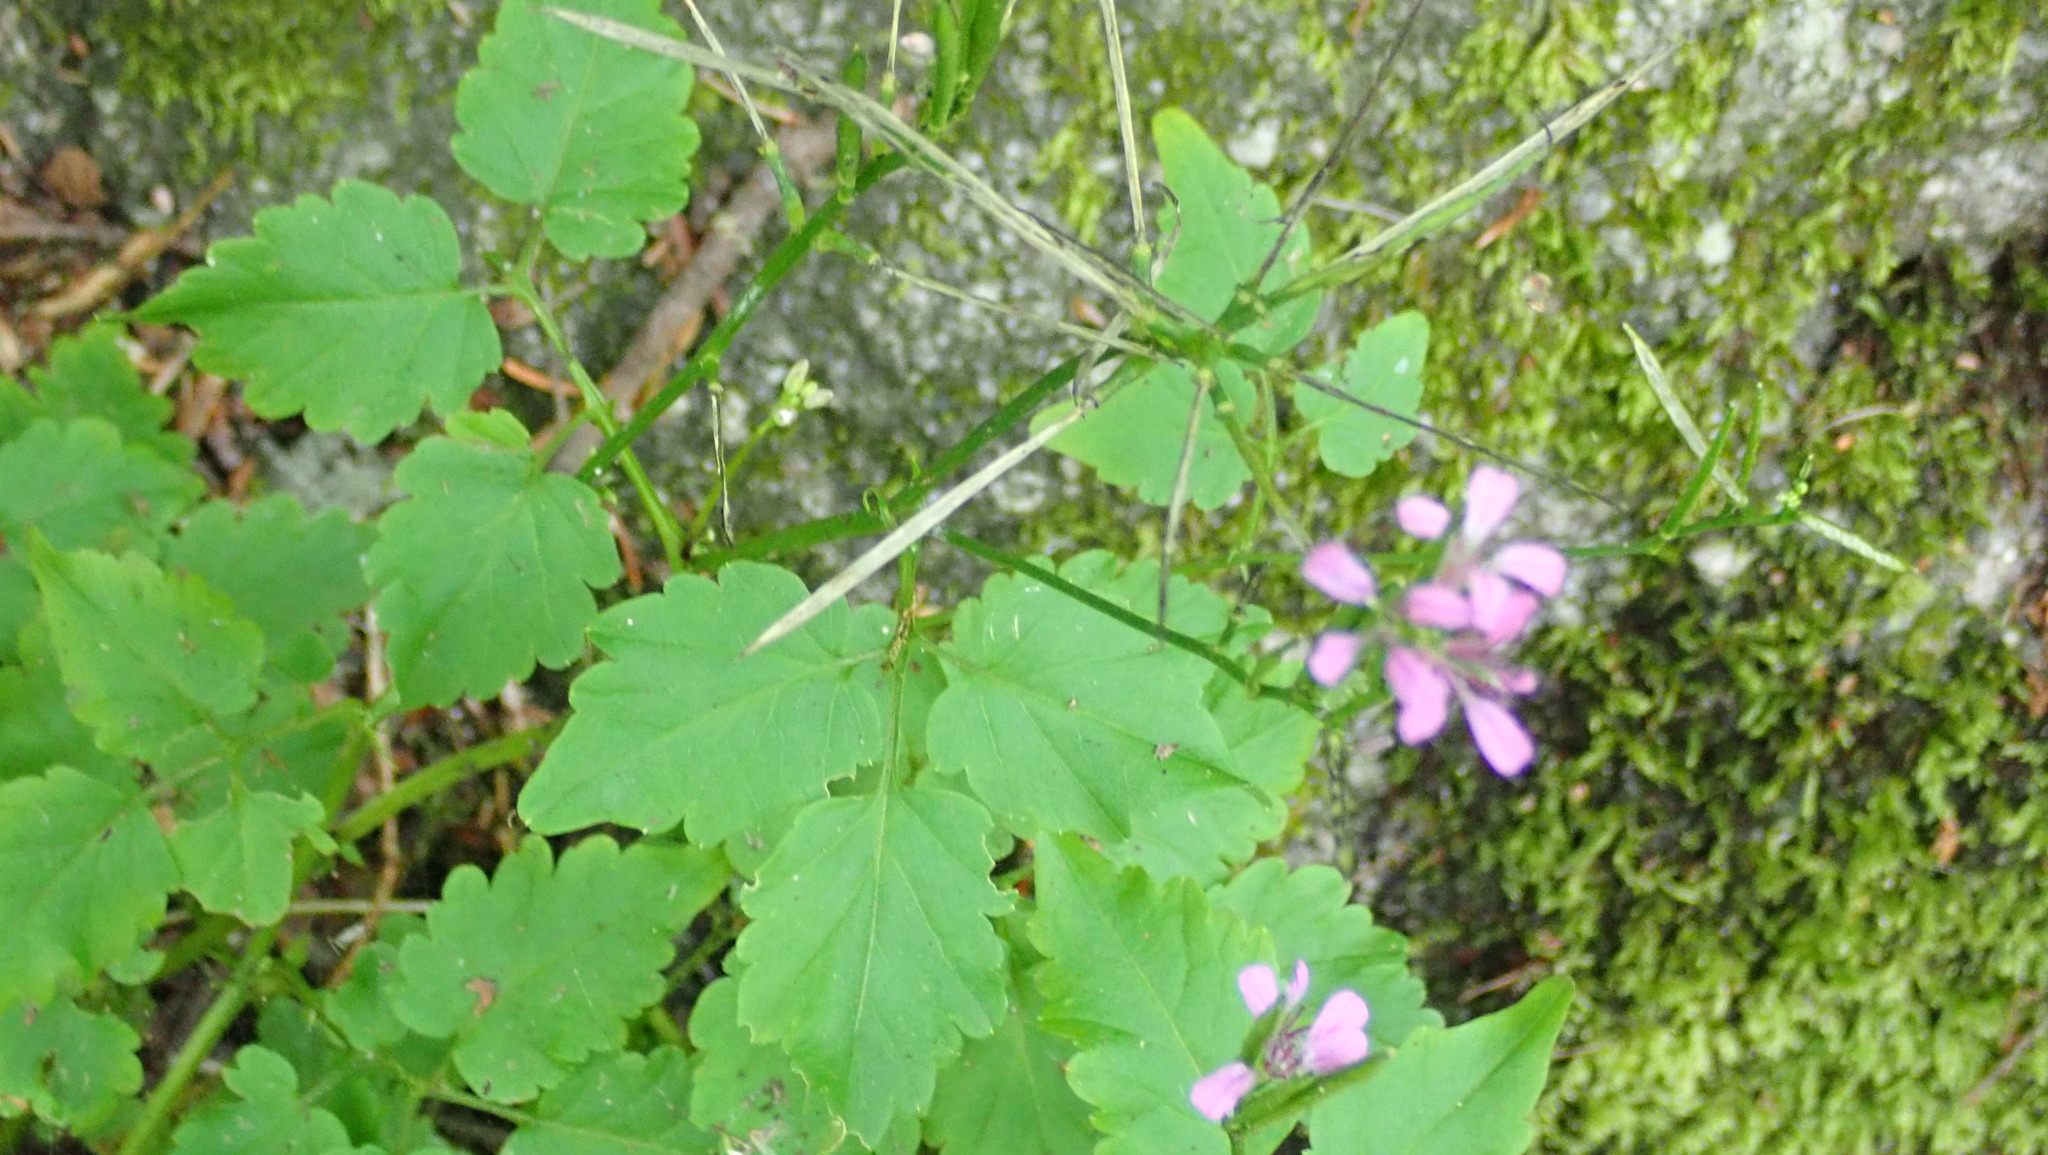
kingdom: Plantae
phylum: Tracheophyta
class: Magnoliopsida
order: Brassicales
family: Brassicaceae
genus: Cardamine
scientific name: Cardamine chelidonia
